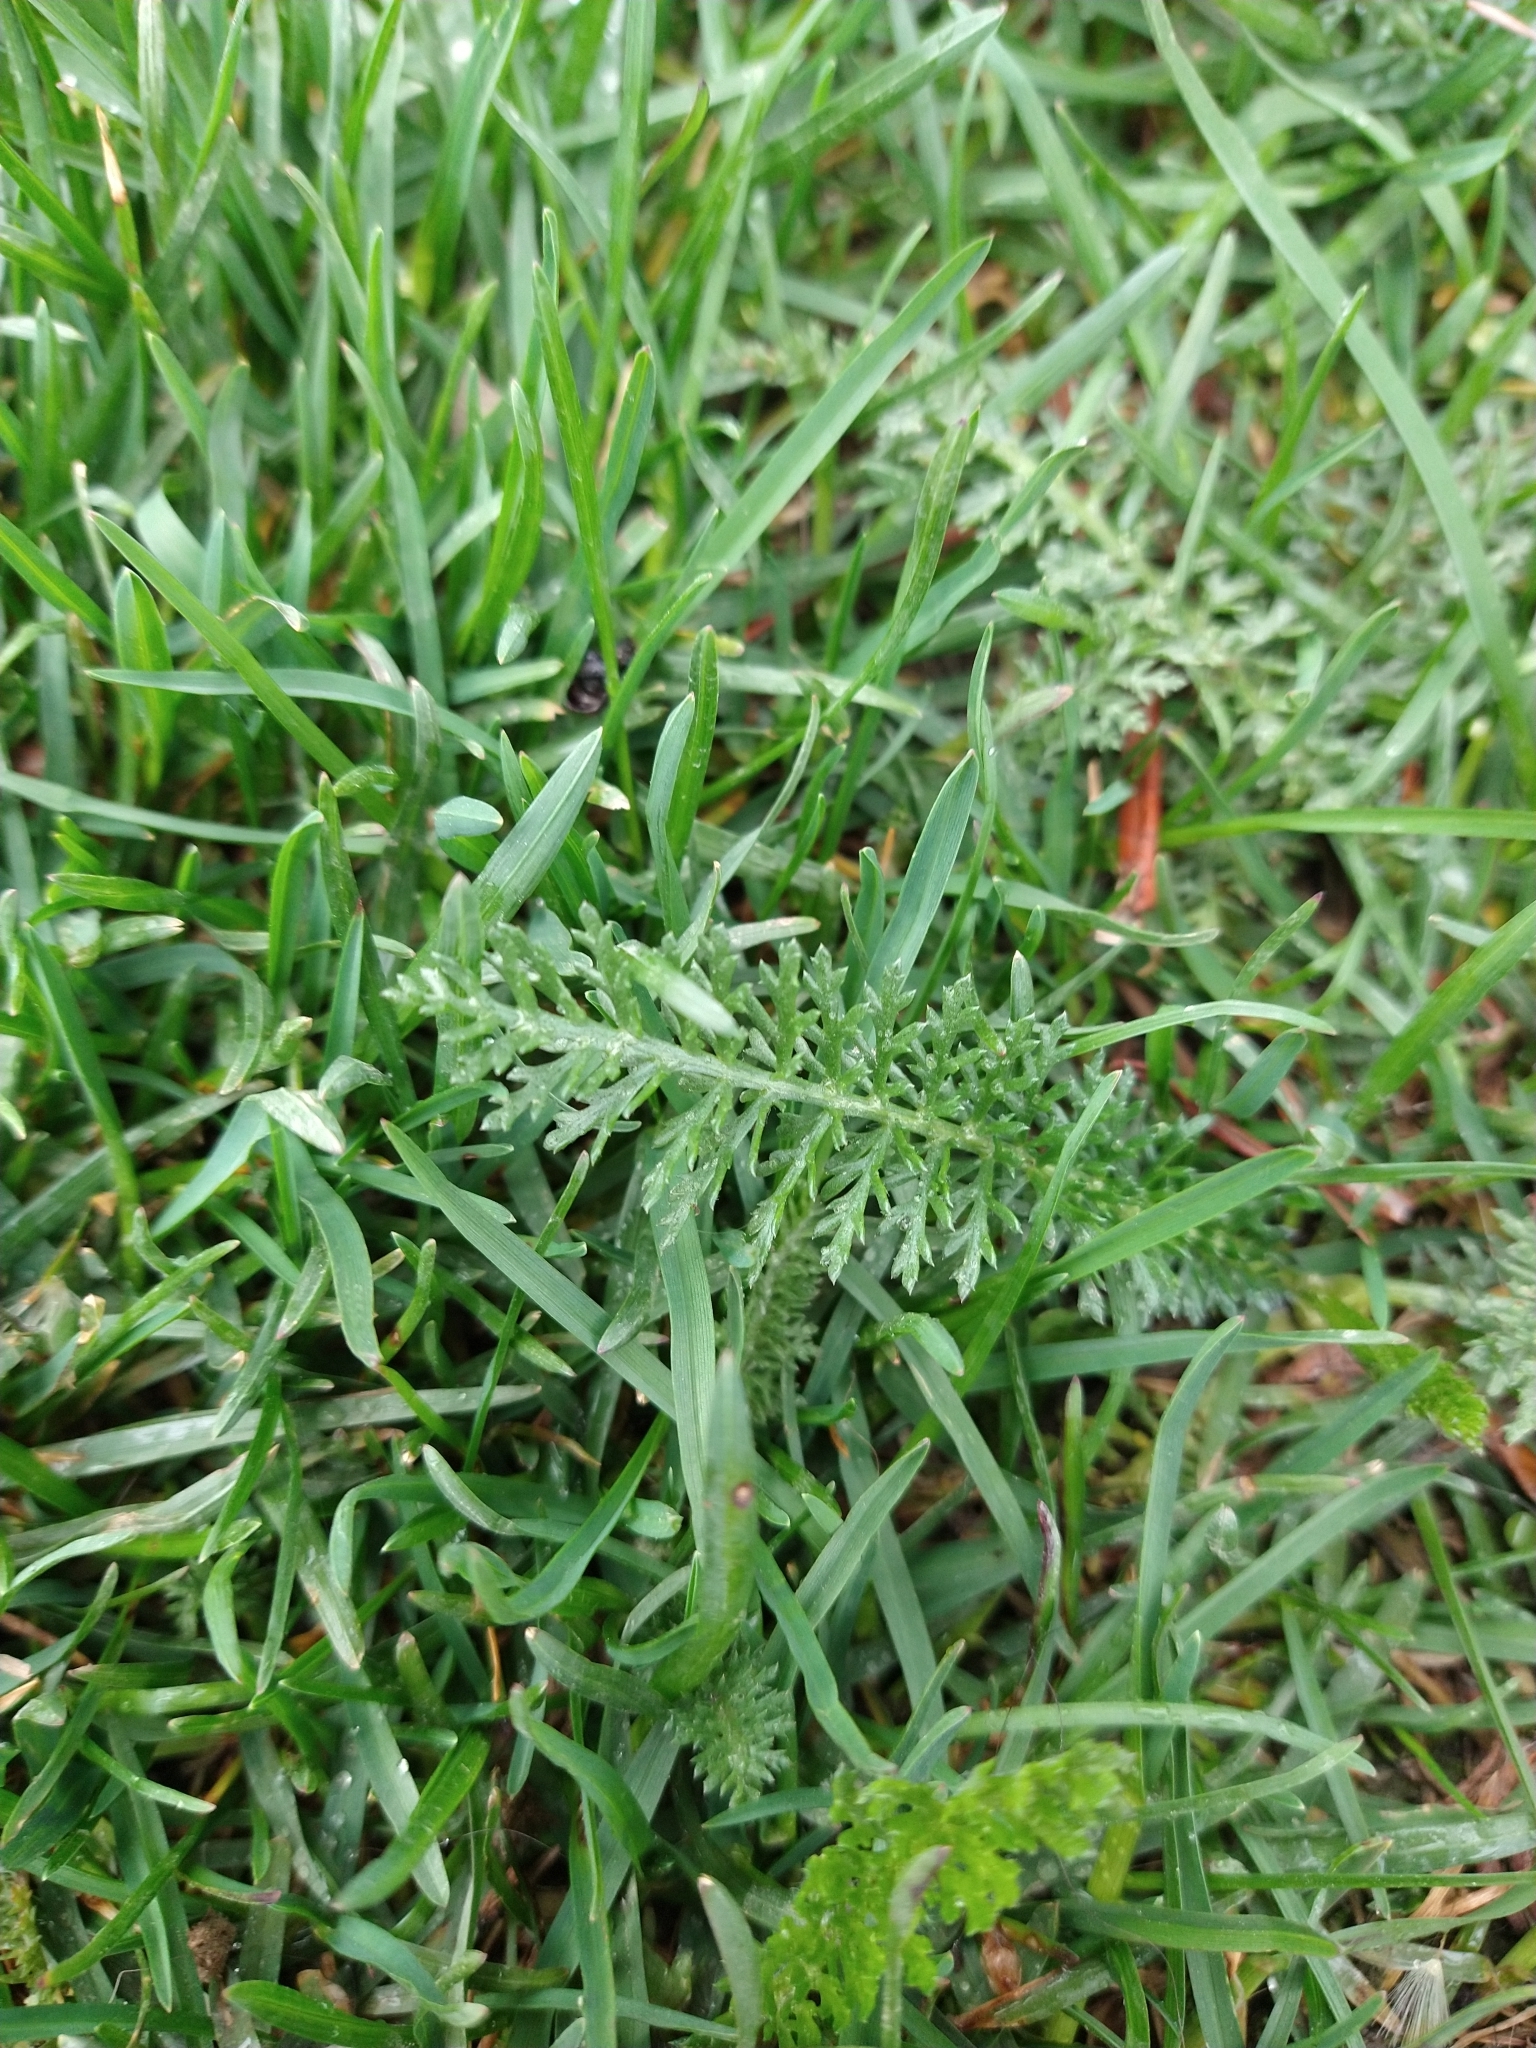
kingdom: Plantae
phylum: Tracheophyta
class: Magnoliopsida
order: Asterales
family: Asteraceae
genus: Achillea
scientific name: Achillea millefolium
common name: Yarrow
